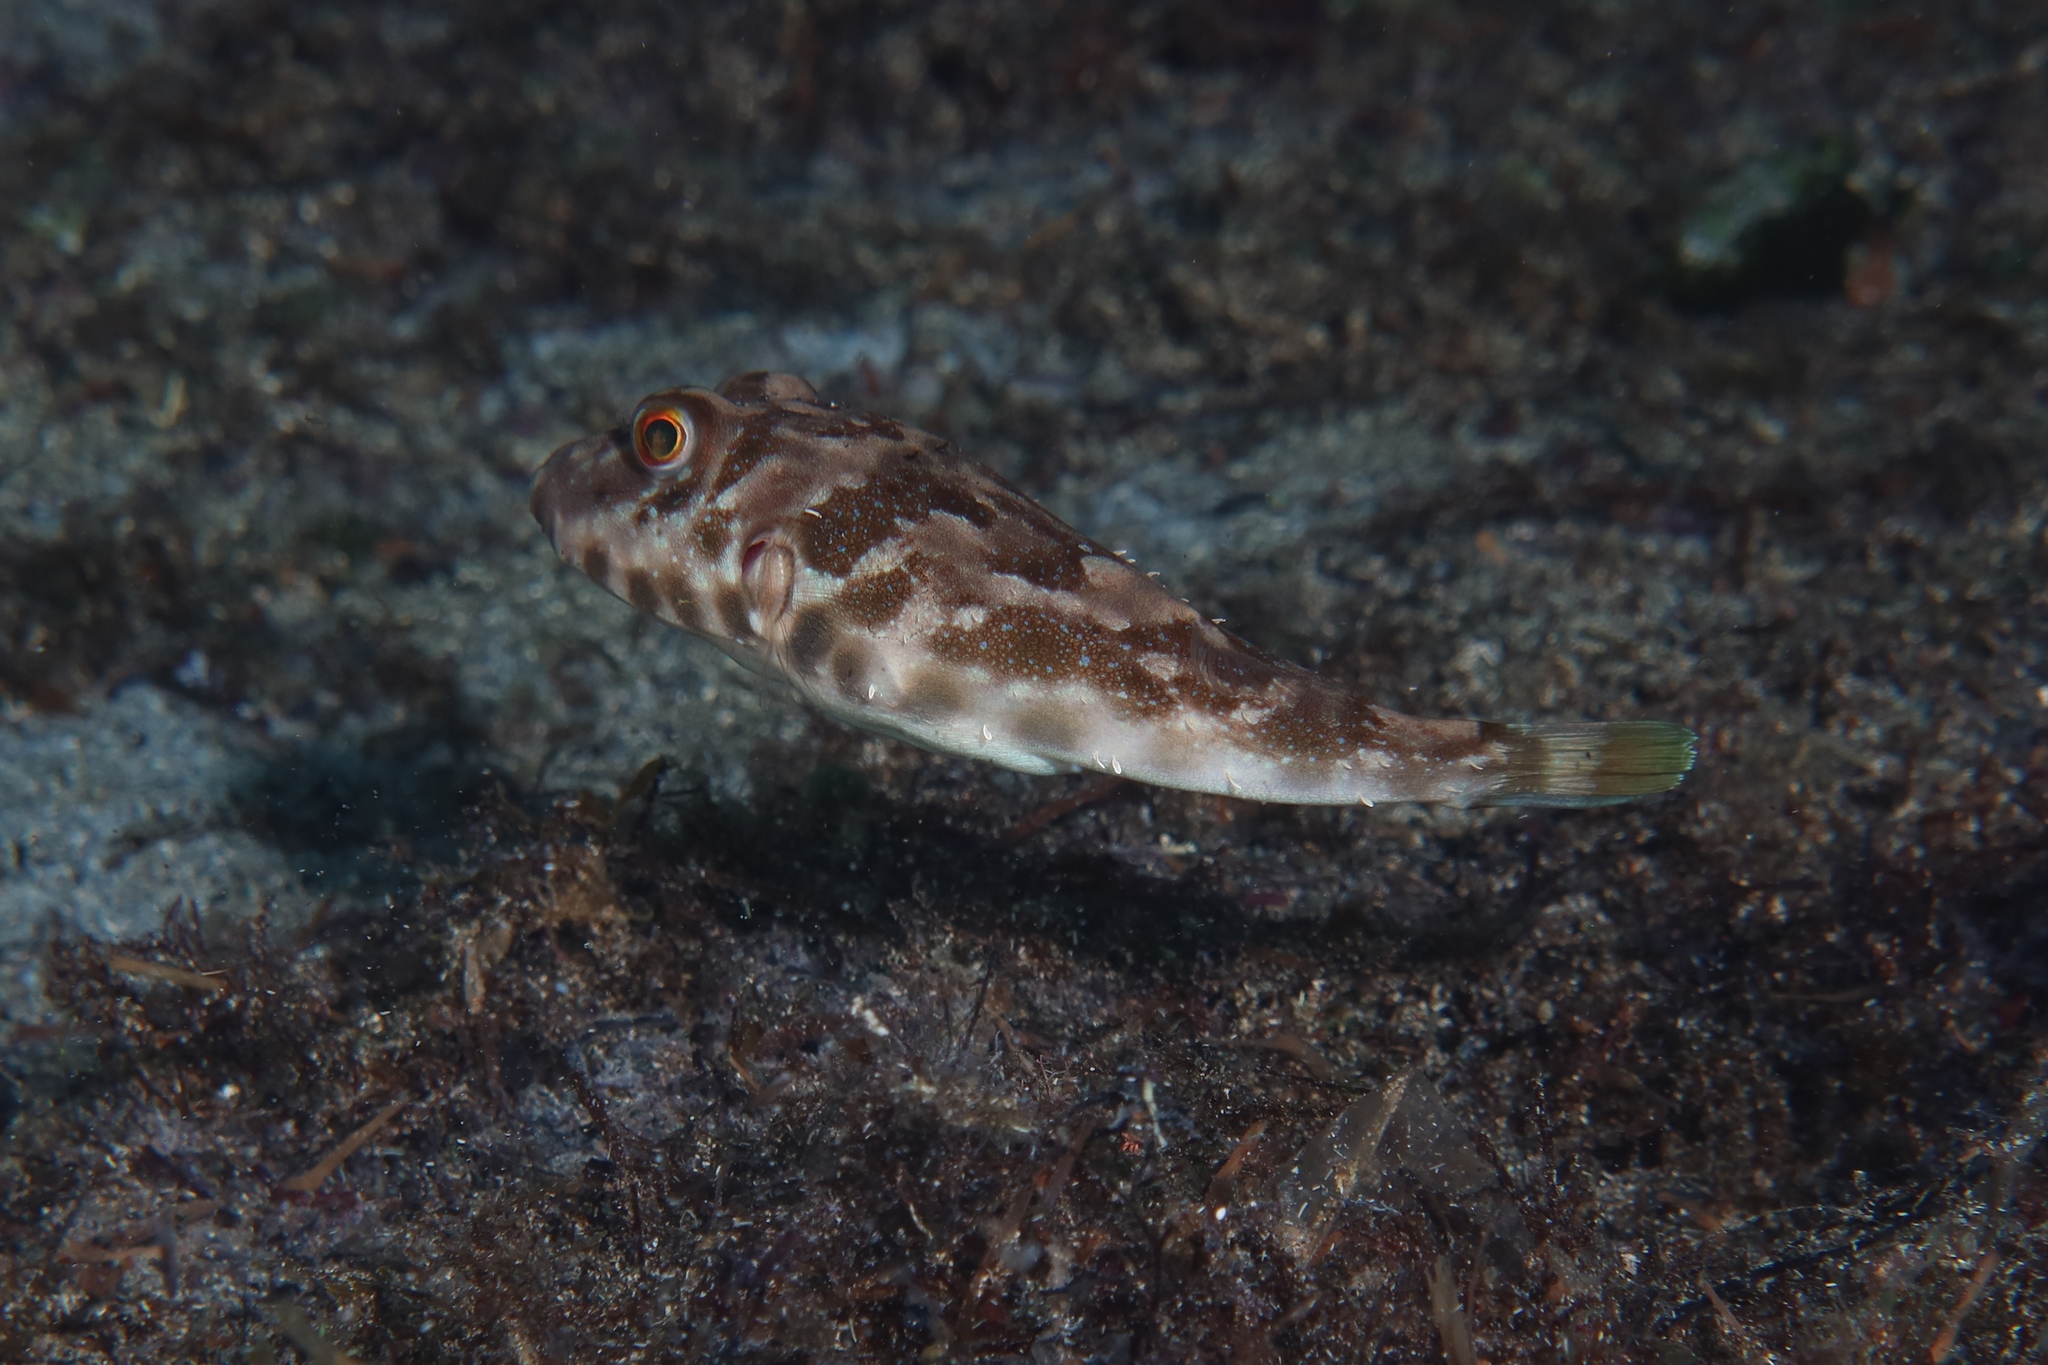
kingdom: Animalia
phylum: Chordata
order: Tetraodontiformes
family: Tetraodontidae
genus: Sphoeroides
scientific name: Sphoeroides marmoratus
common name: Guinean puffer
